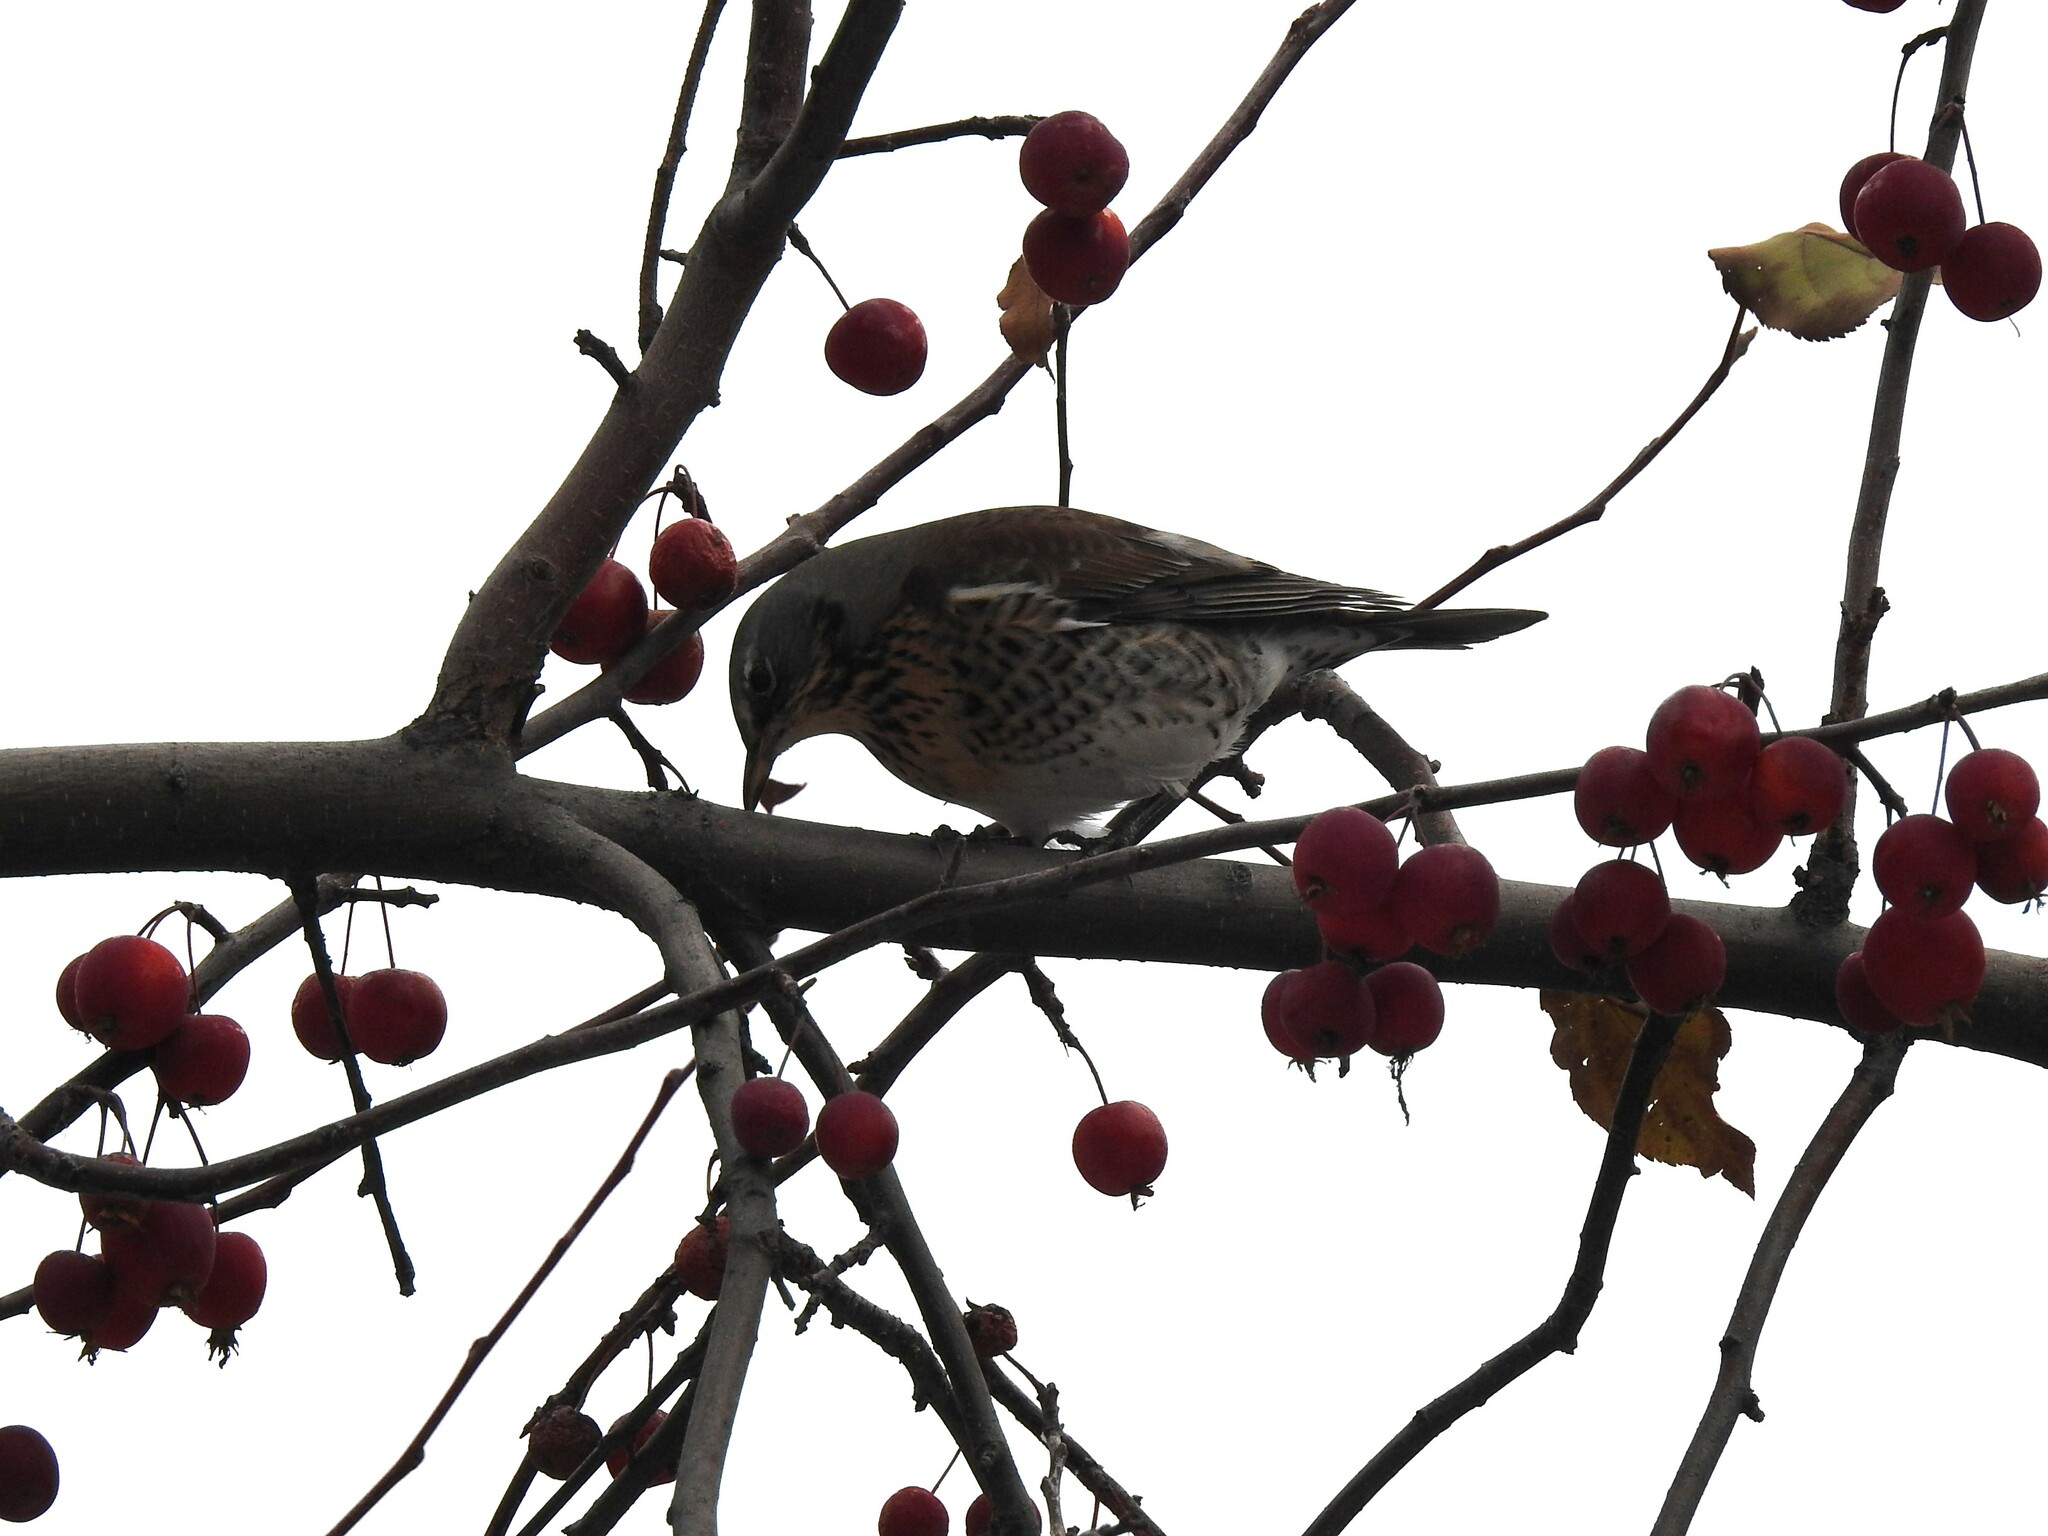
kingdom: Animalia
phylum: Chordata
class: Aves
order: Passeriformes
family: Turdidae
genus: Turdus
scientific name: Turdus pilaris
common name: Fieldfare
